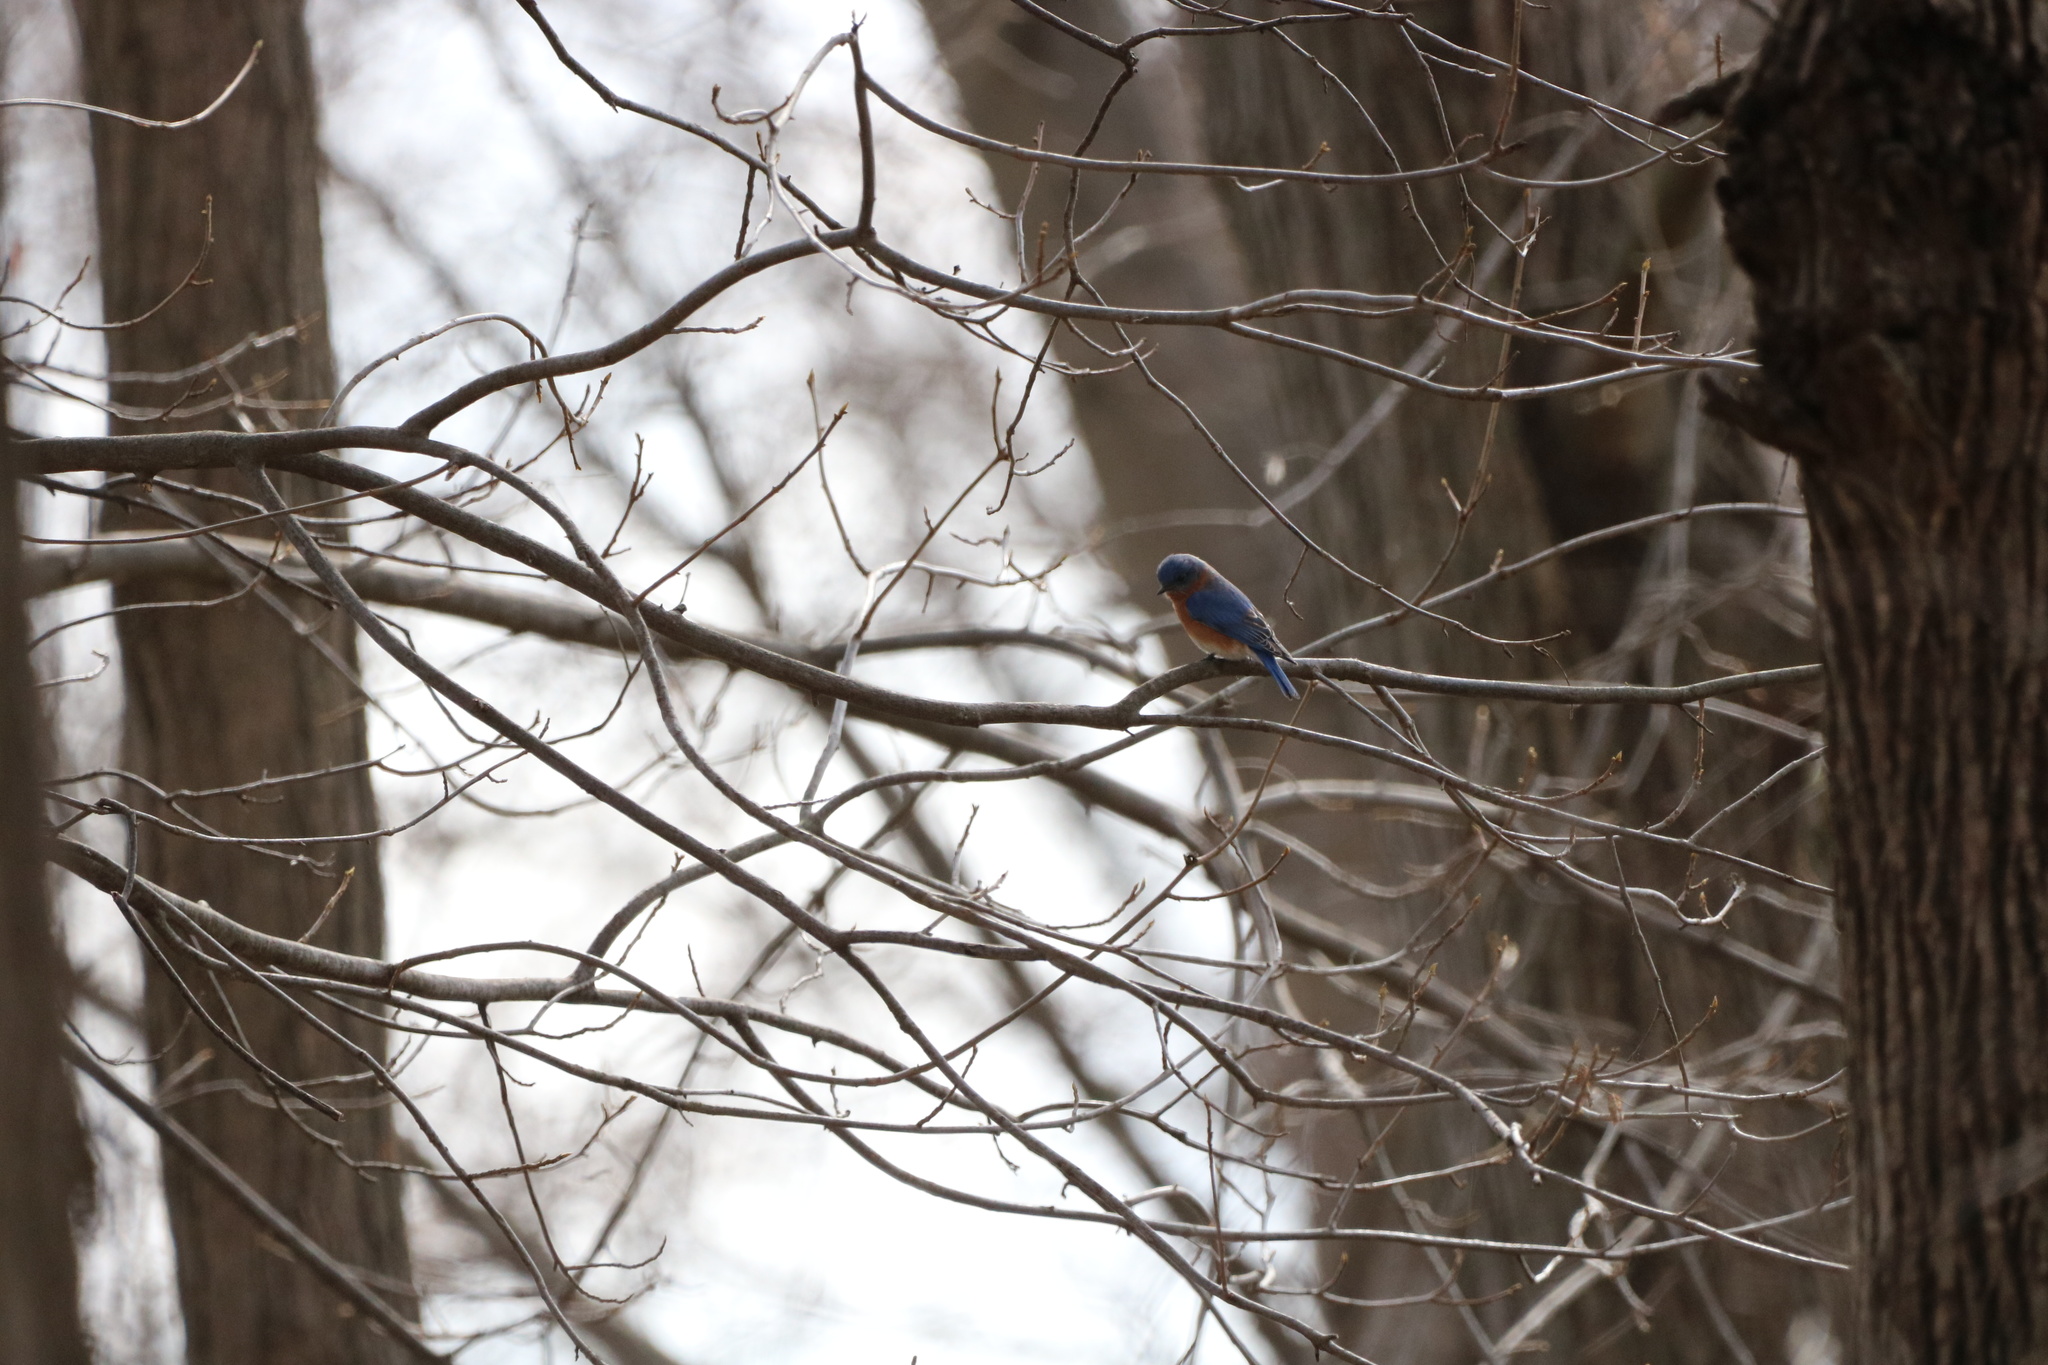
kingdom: Animalia
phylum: Chordata
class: Aves
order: Passeriformes
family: Turdidae
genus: Sialia
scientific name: Sialia sialis
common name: Eastern bluebird
